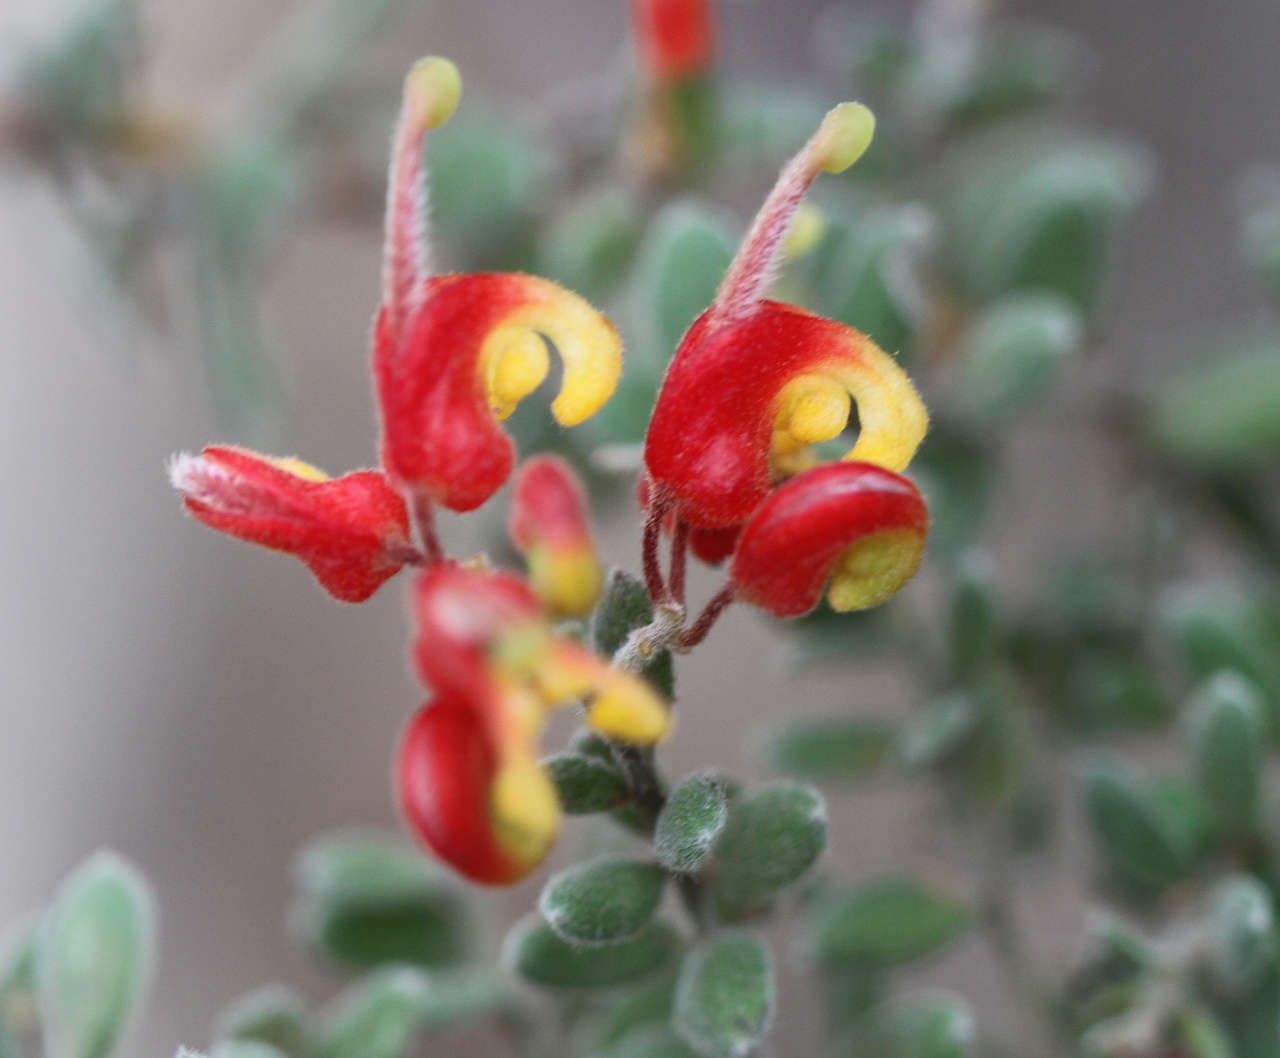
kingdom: Plantae
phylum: Tracheophyta
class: Magnoliopsida
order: Proteales
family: Proteaceae
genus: Grevillea
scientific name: Grevillea alpina
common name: Catclaws grevillea
